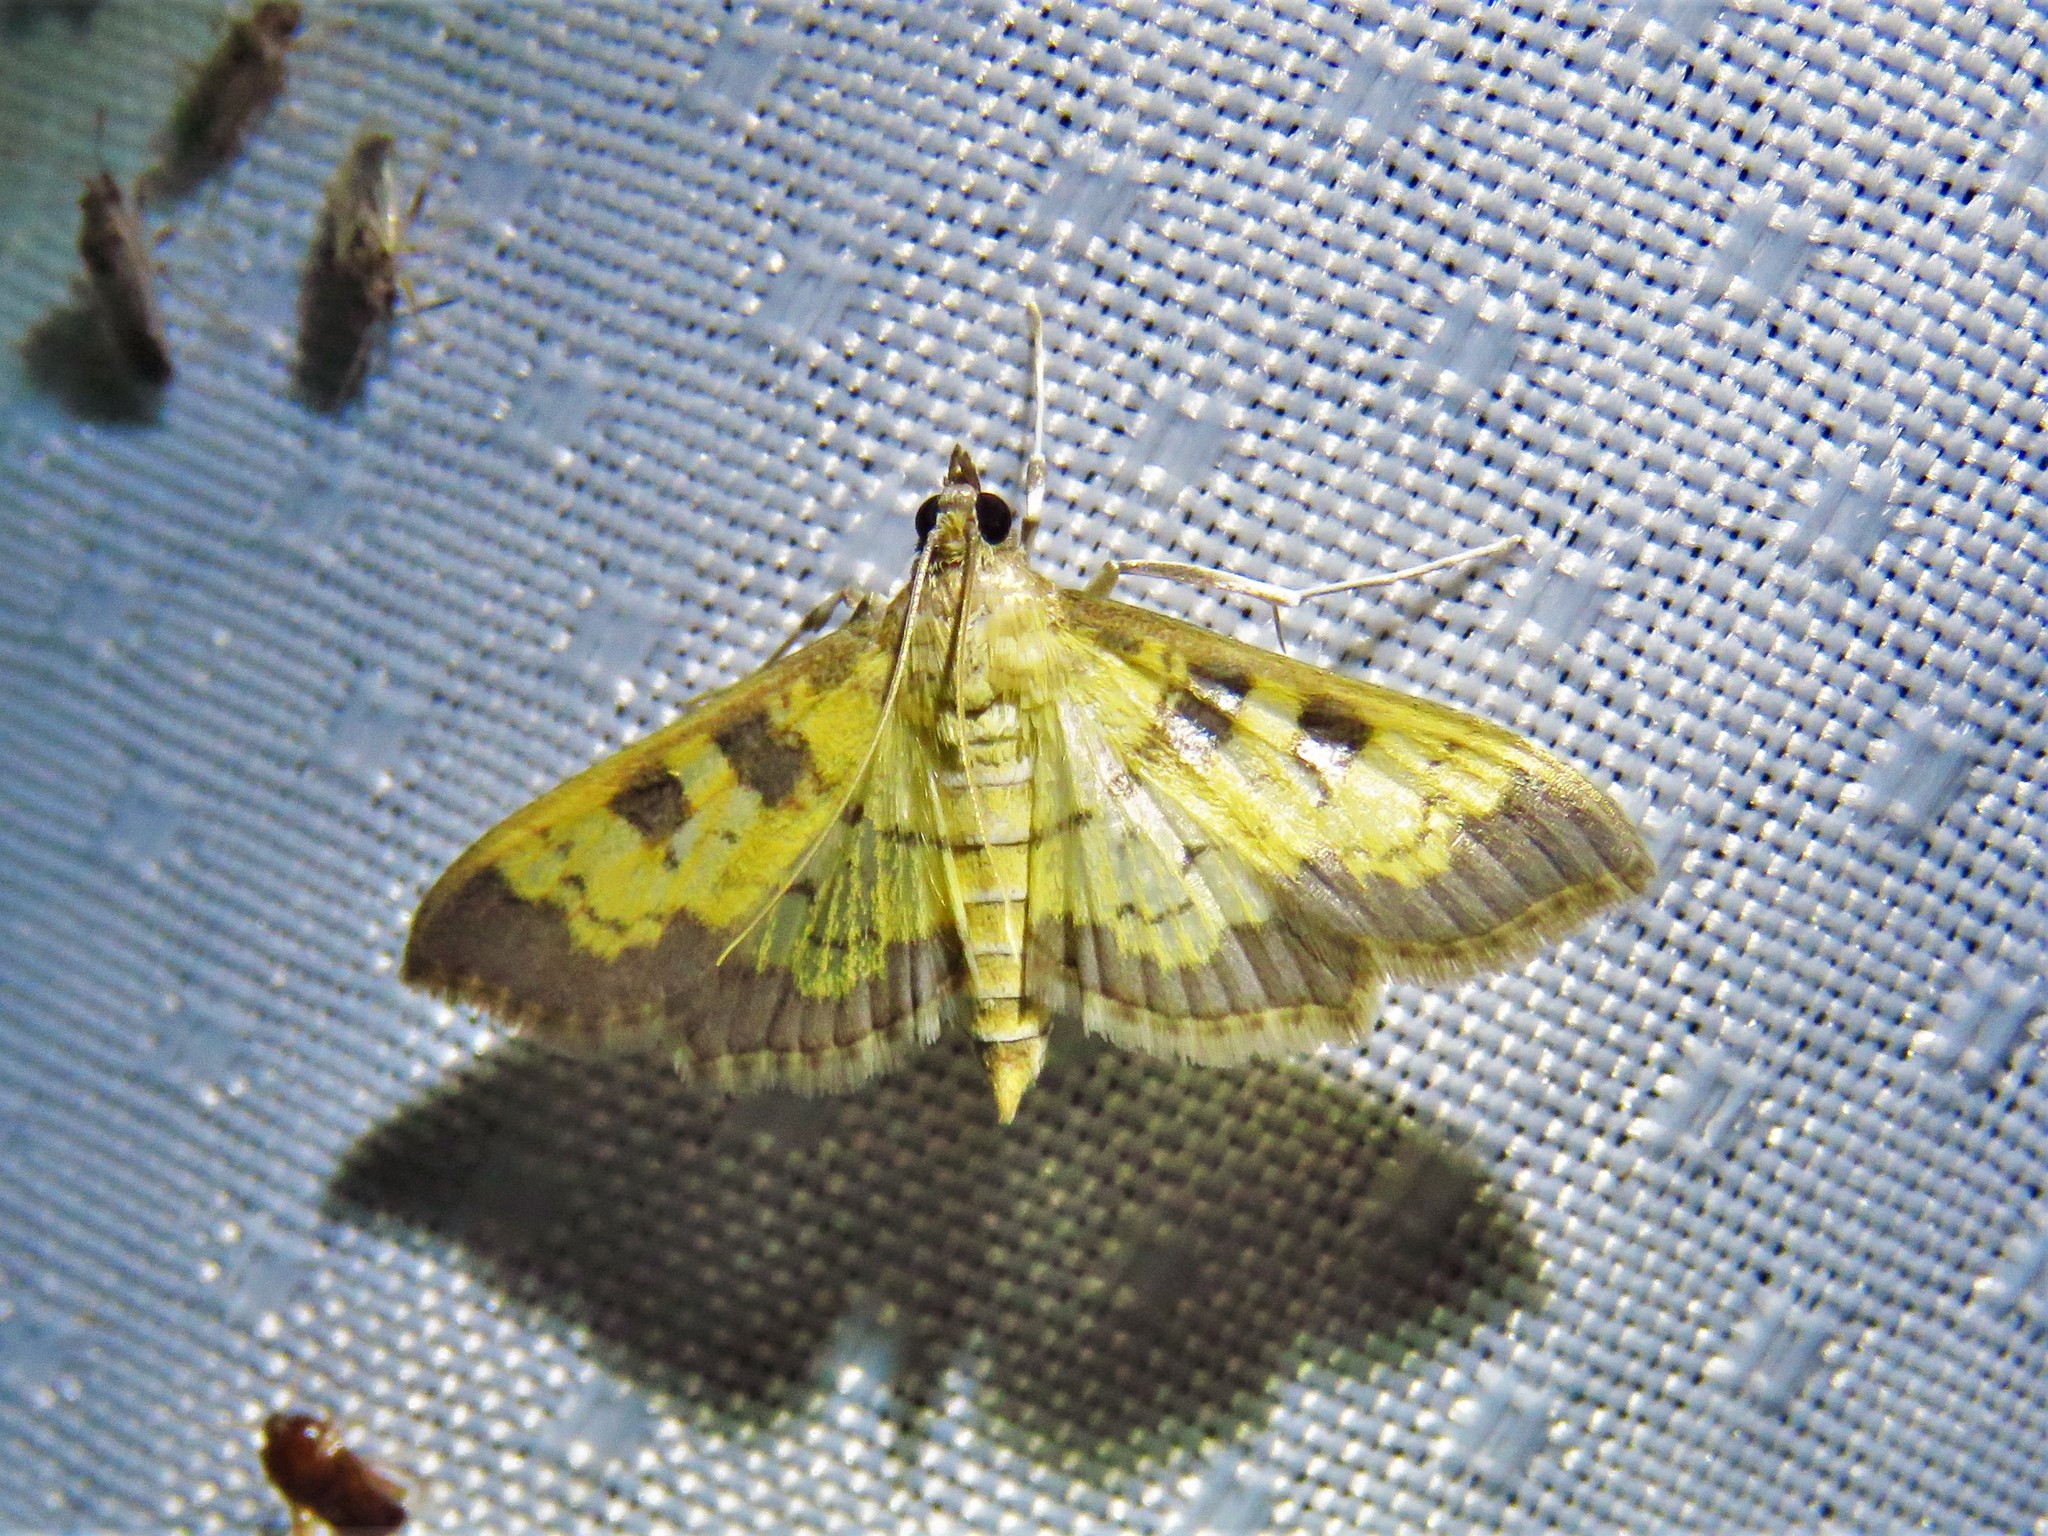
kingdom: Animalia
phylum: Arthropoda
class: Insecta
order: Lepidoptera
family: Crambidae
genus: Cryptographis
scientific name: Cryptographis elealis
